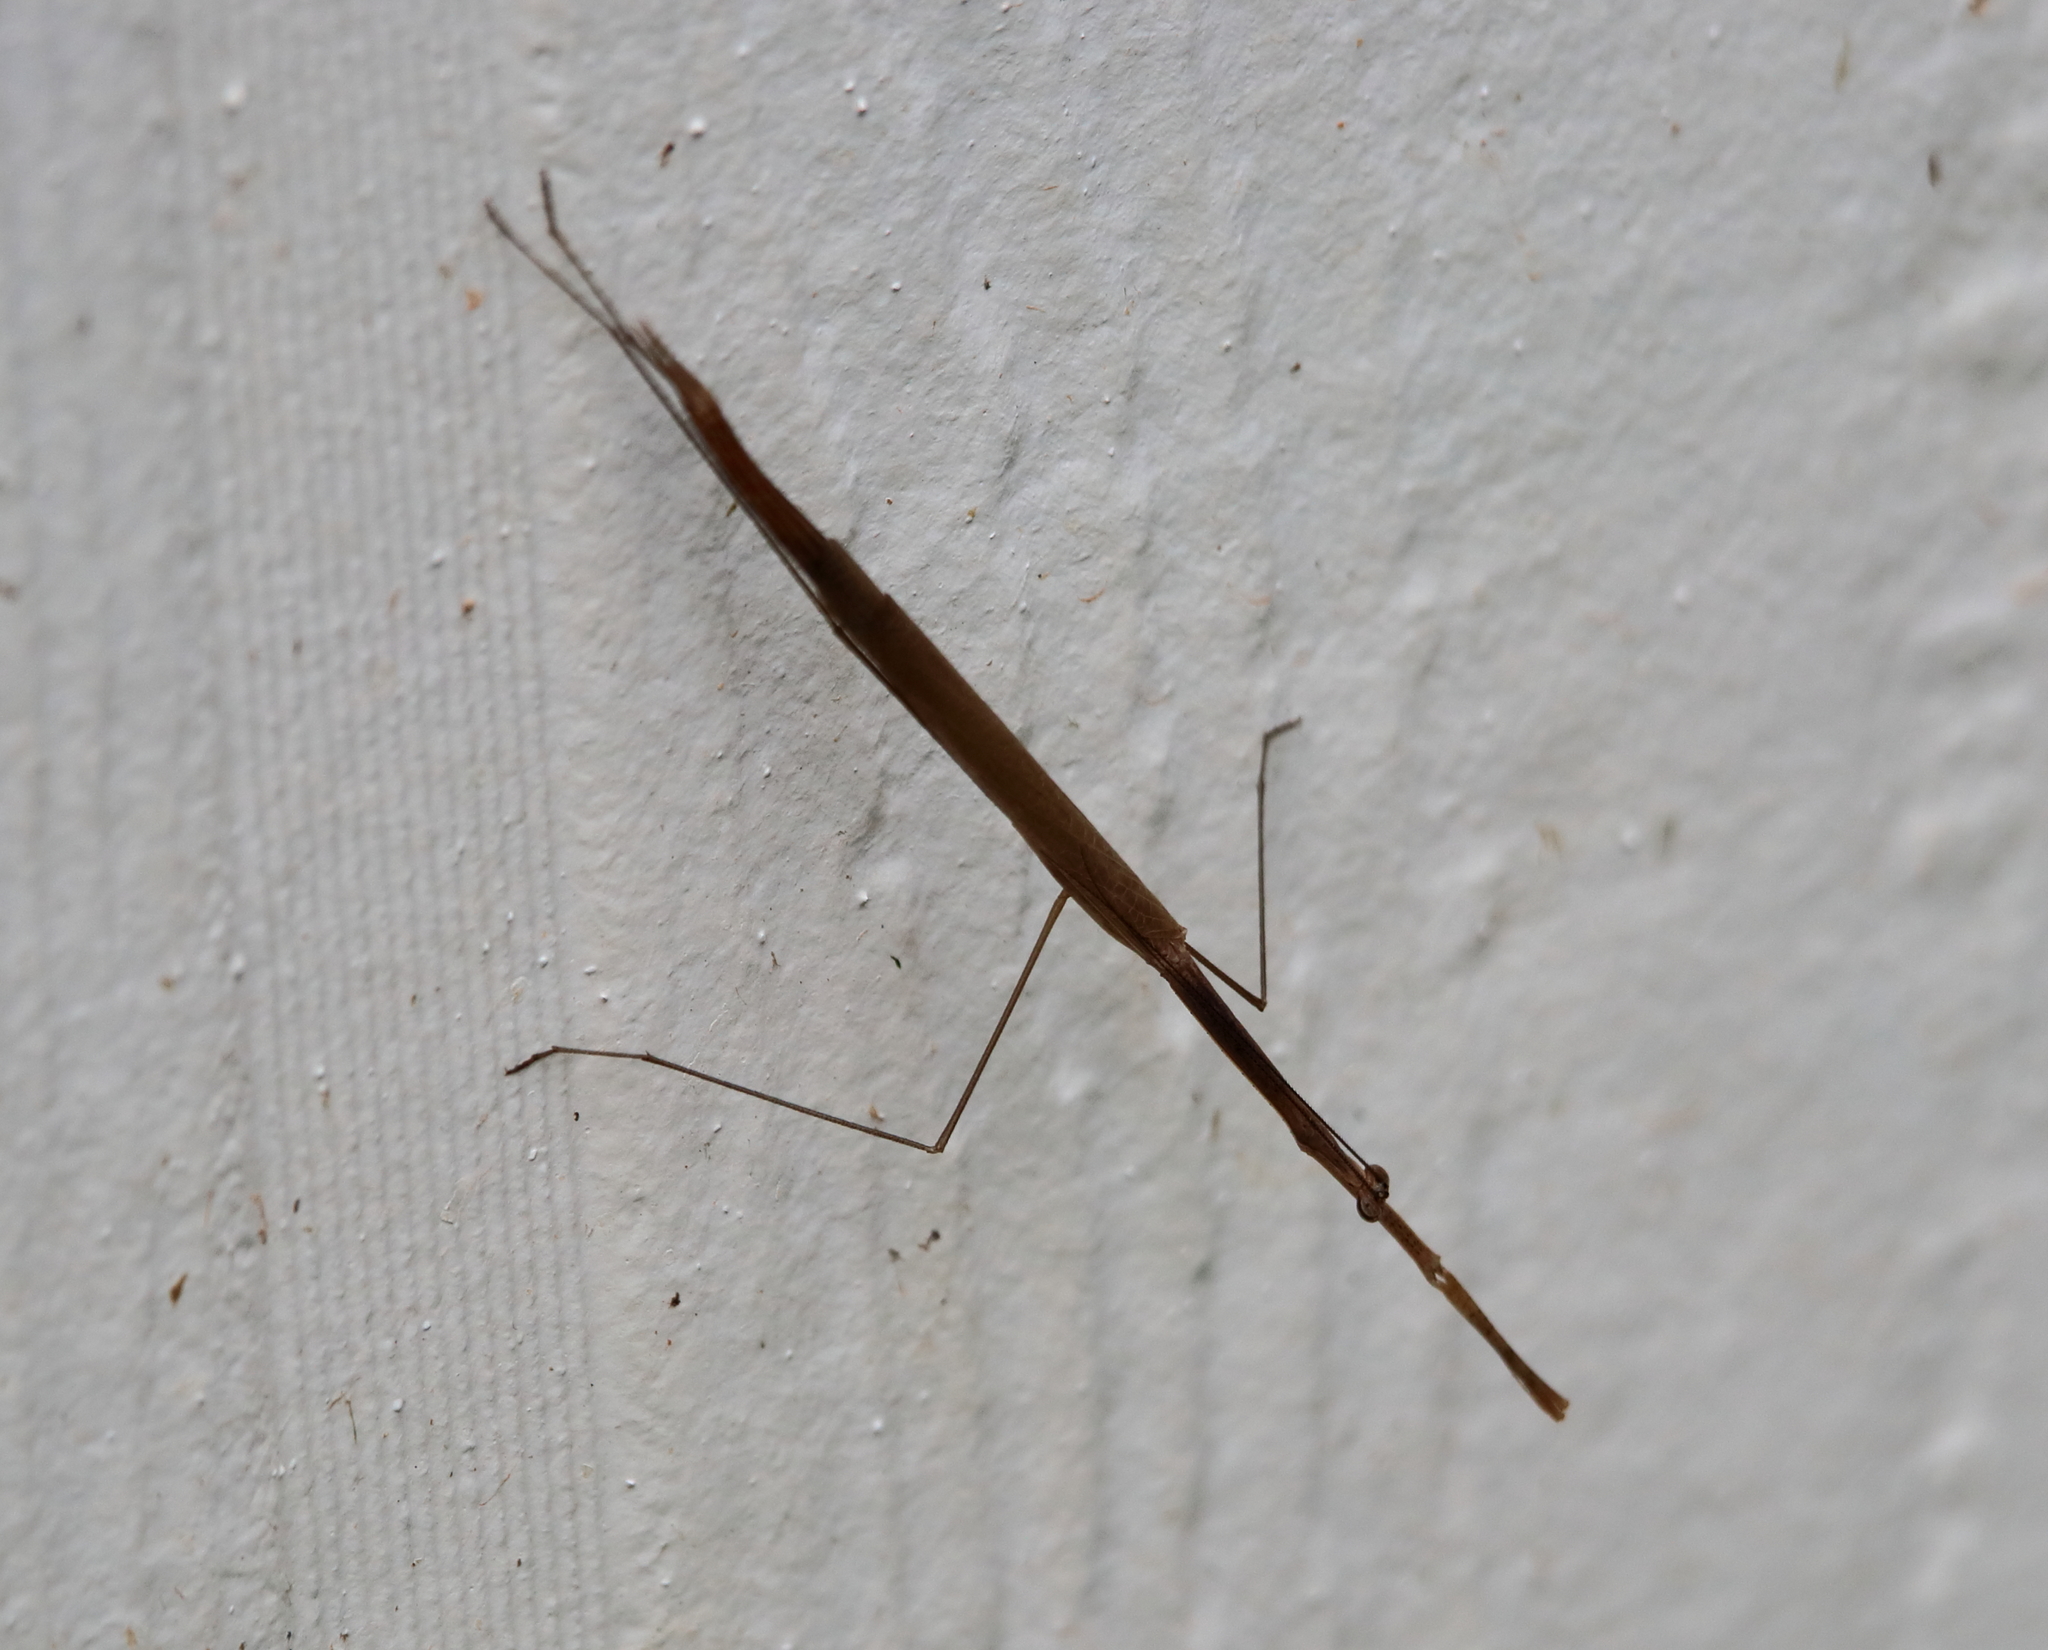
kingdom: Animalia
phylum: Arthropoda
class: Insecta
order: Mantodea
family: Thespidae
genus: Thesprotia
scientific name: Thesprotia graminis
